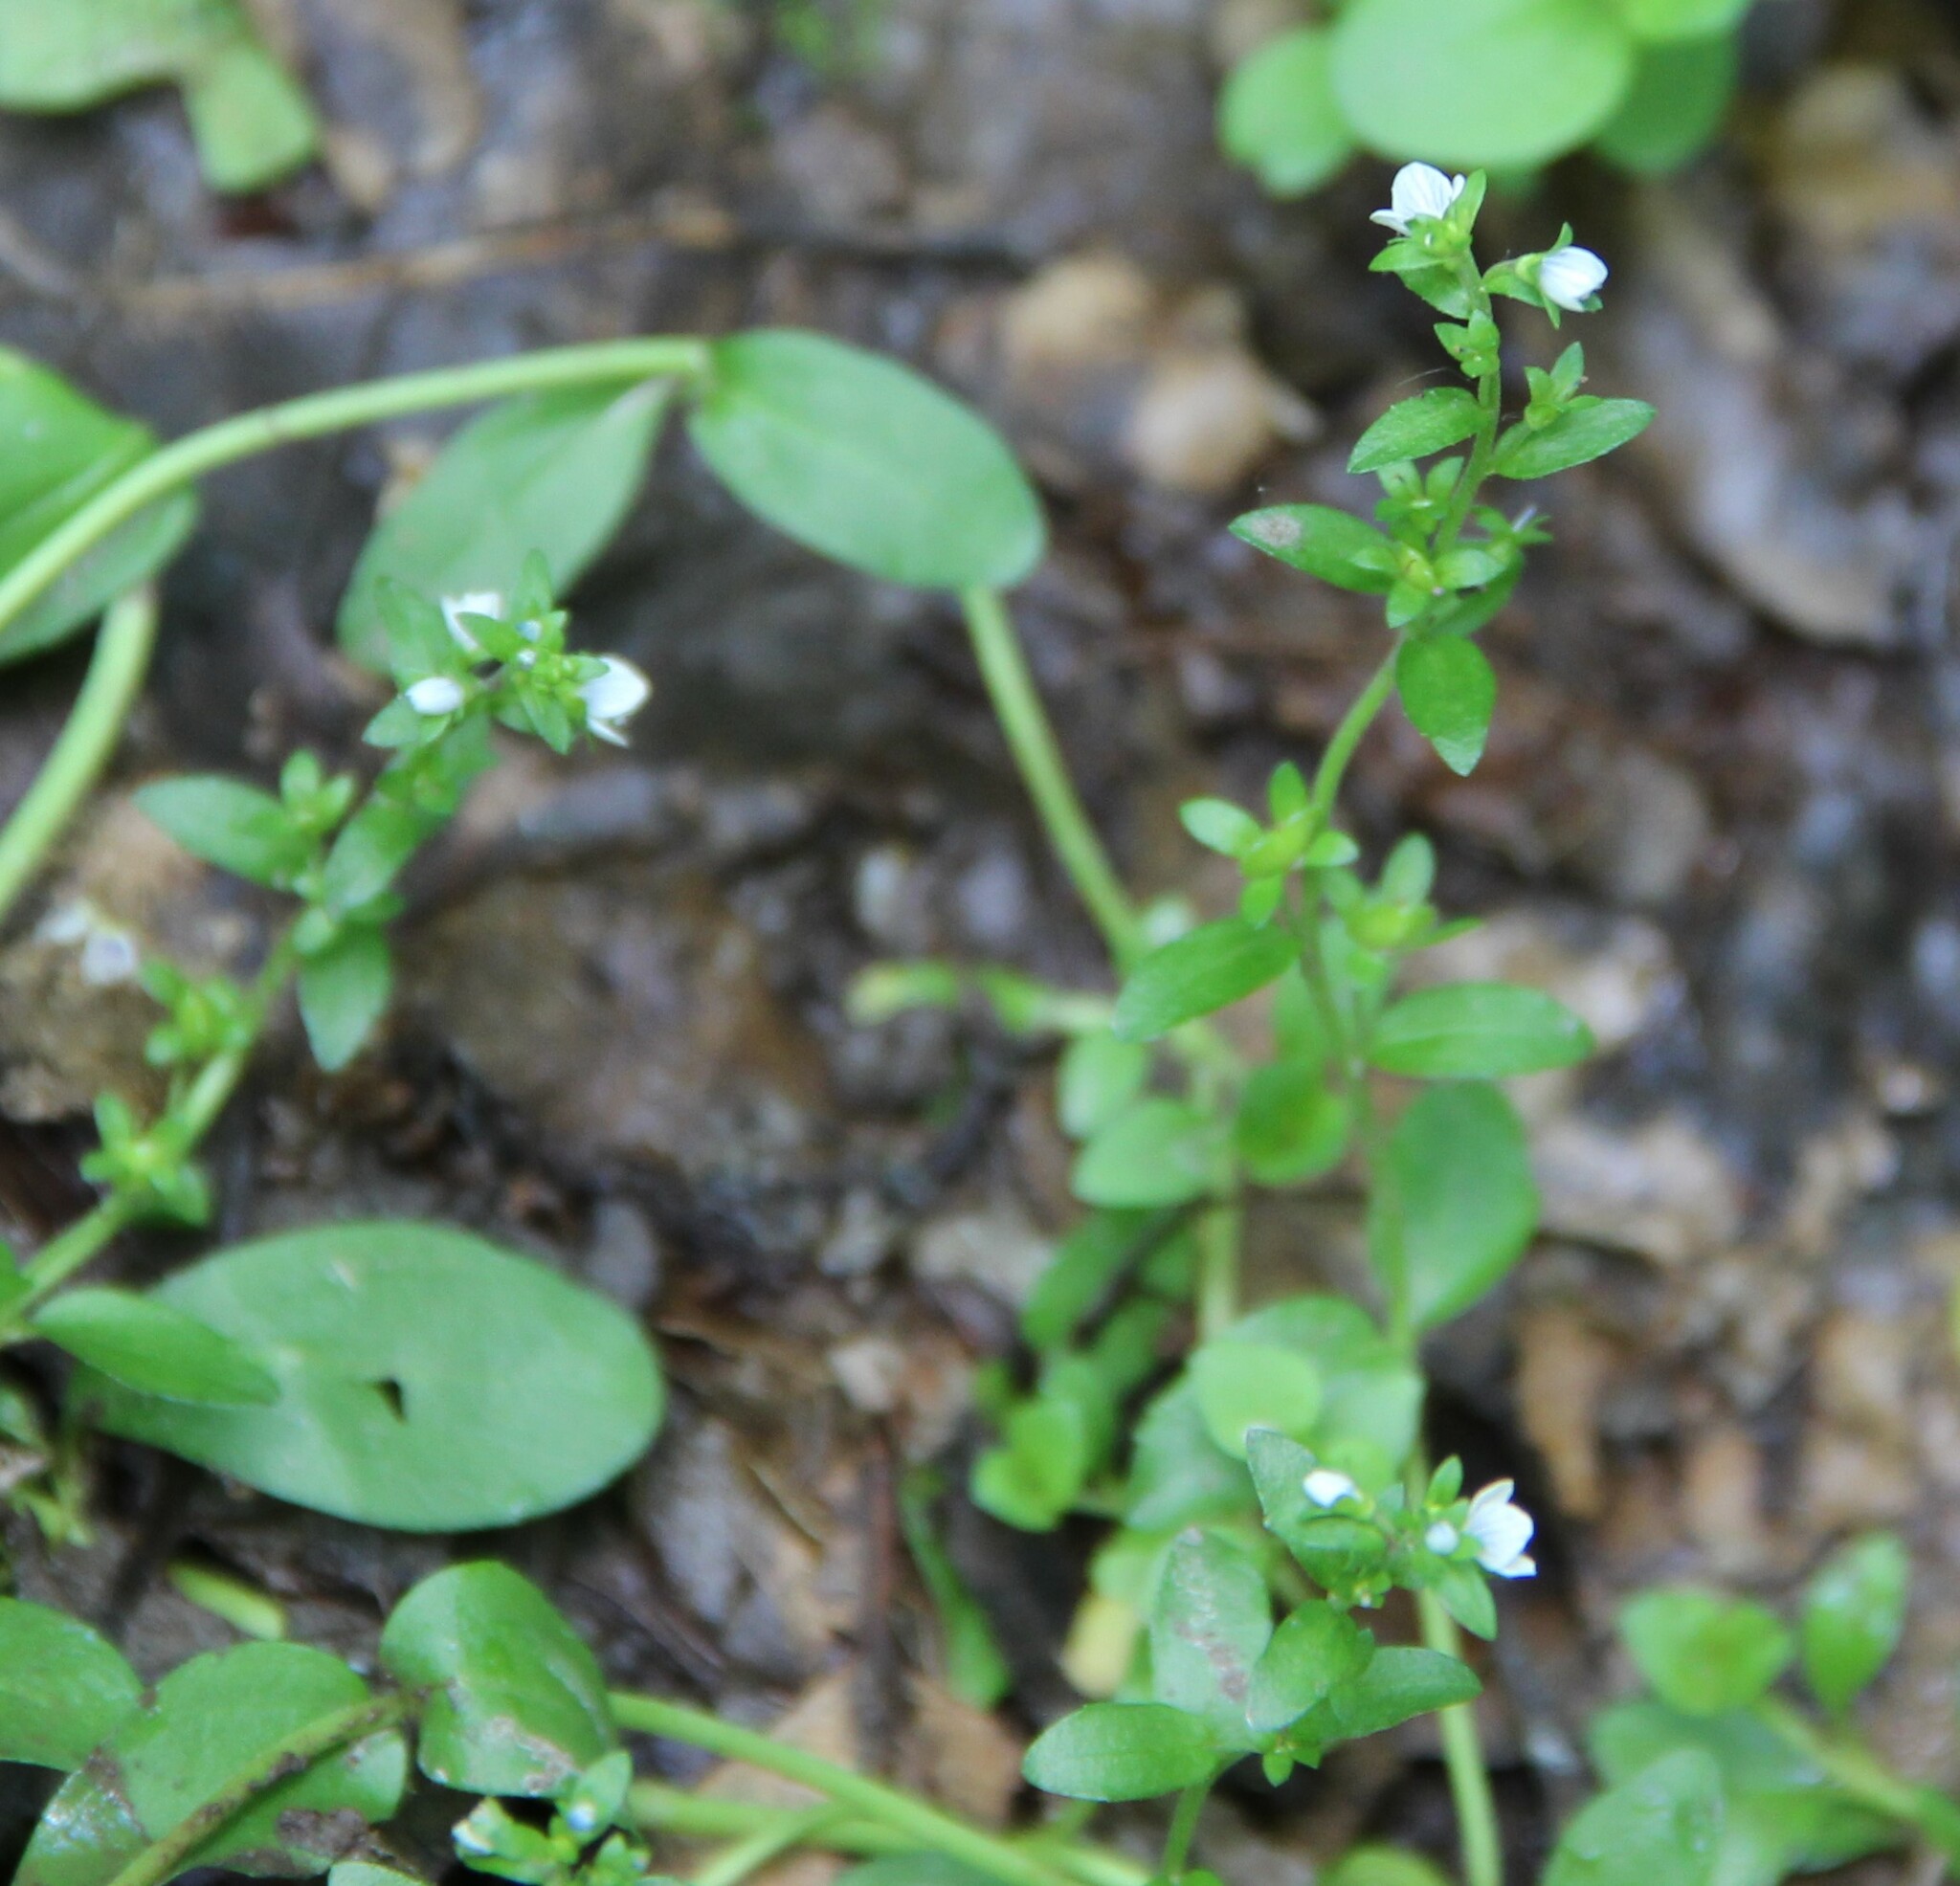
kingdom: Plantae
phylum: Tracheophyta
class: Magnoliopsida
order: Lamiales
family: Plantaginaceae
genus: Veronica
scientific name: Veronica serpyllifolia
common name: Thyme-leaved speedwell
